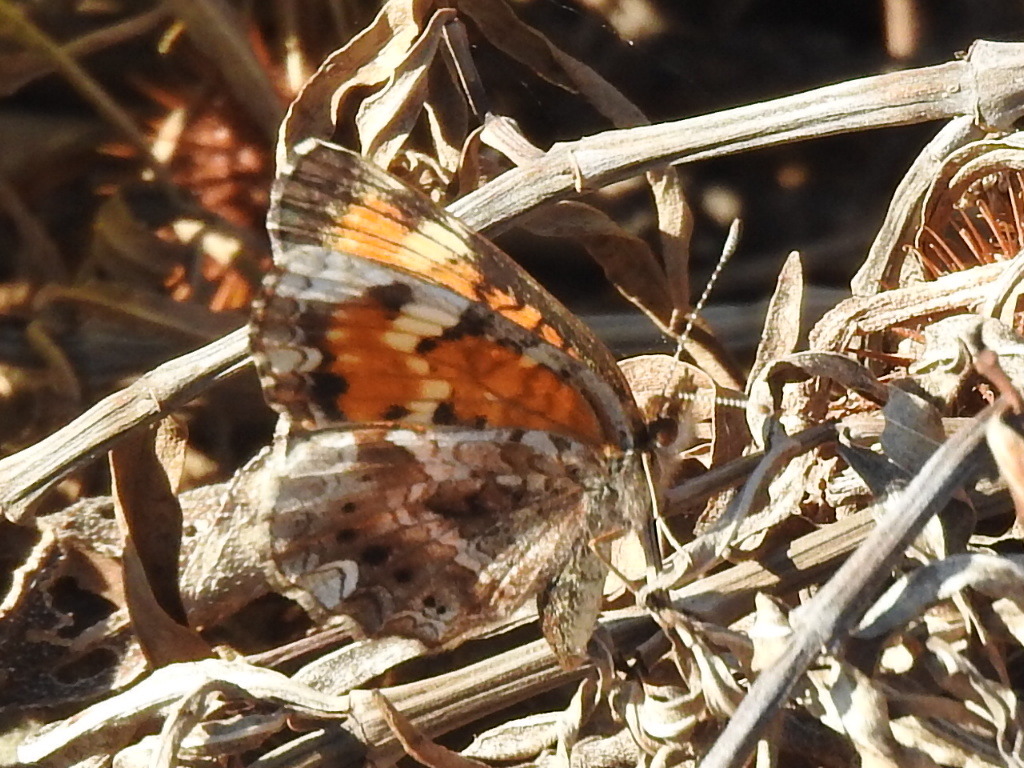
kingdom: Animalia
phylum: Arthropoda
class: Insecta
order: Lepidoptera
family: Nymphalidae
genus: Phyciodes
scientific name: Phyciodes phaon
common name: Phaon crescent
